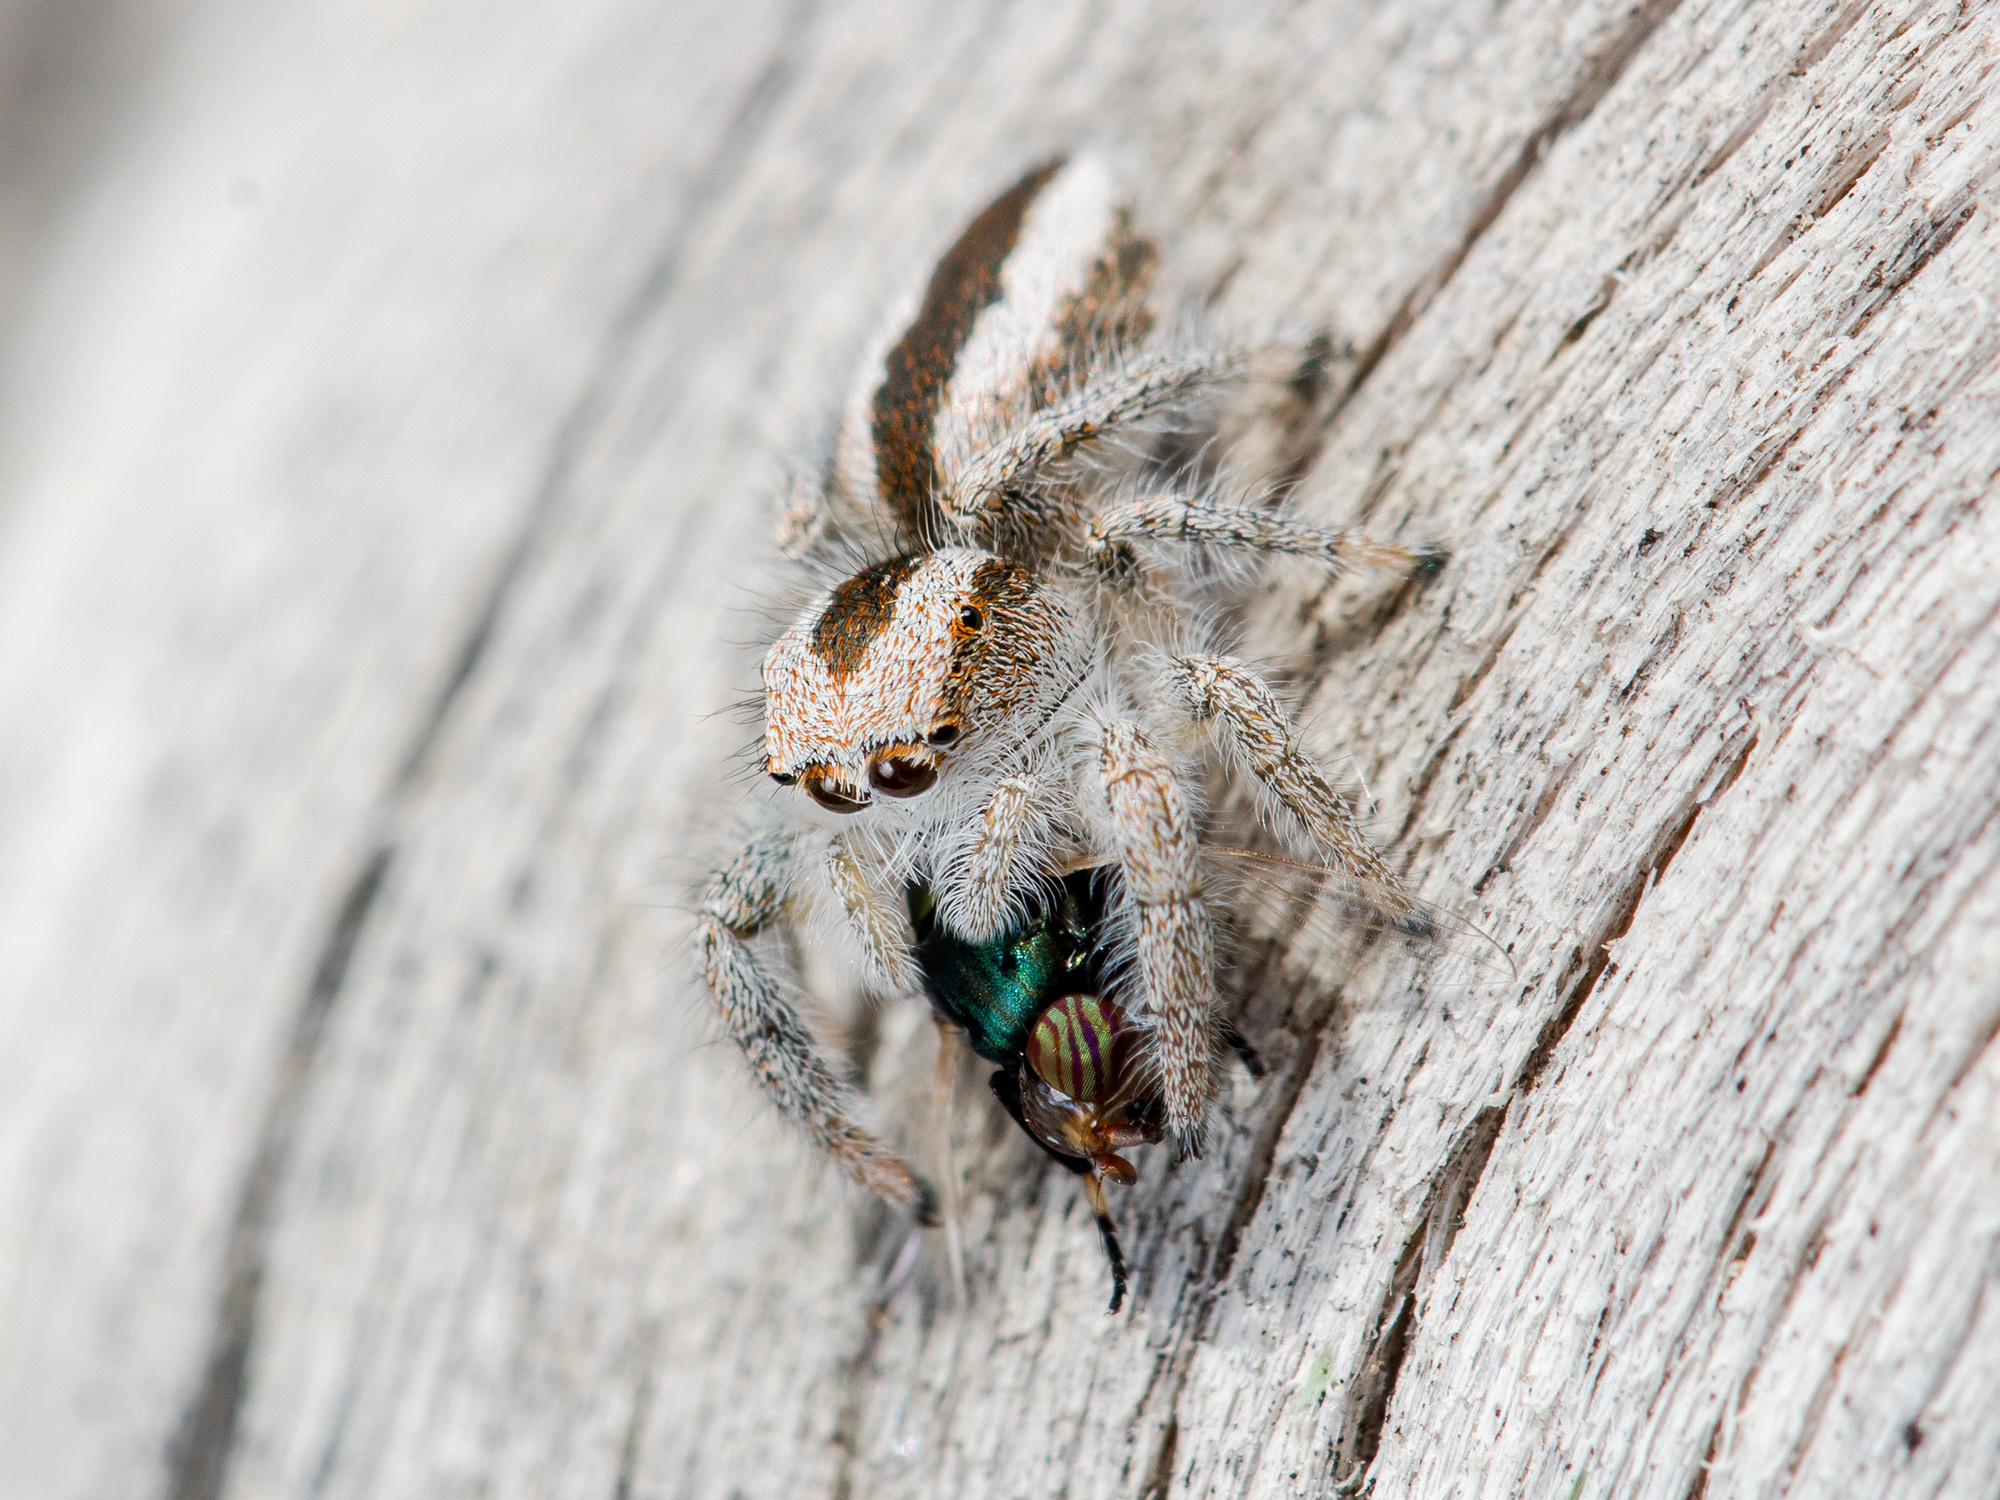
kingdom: Animalia
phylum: Arthropoda
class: Arachnida
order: Araneae
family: Salticidae
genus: Pseudomogrus
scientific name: Pseudomogrus validus
